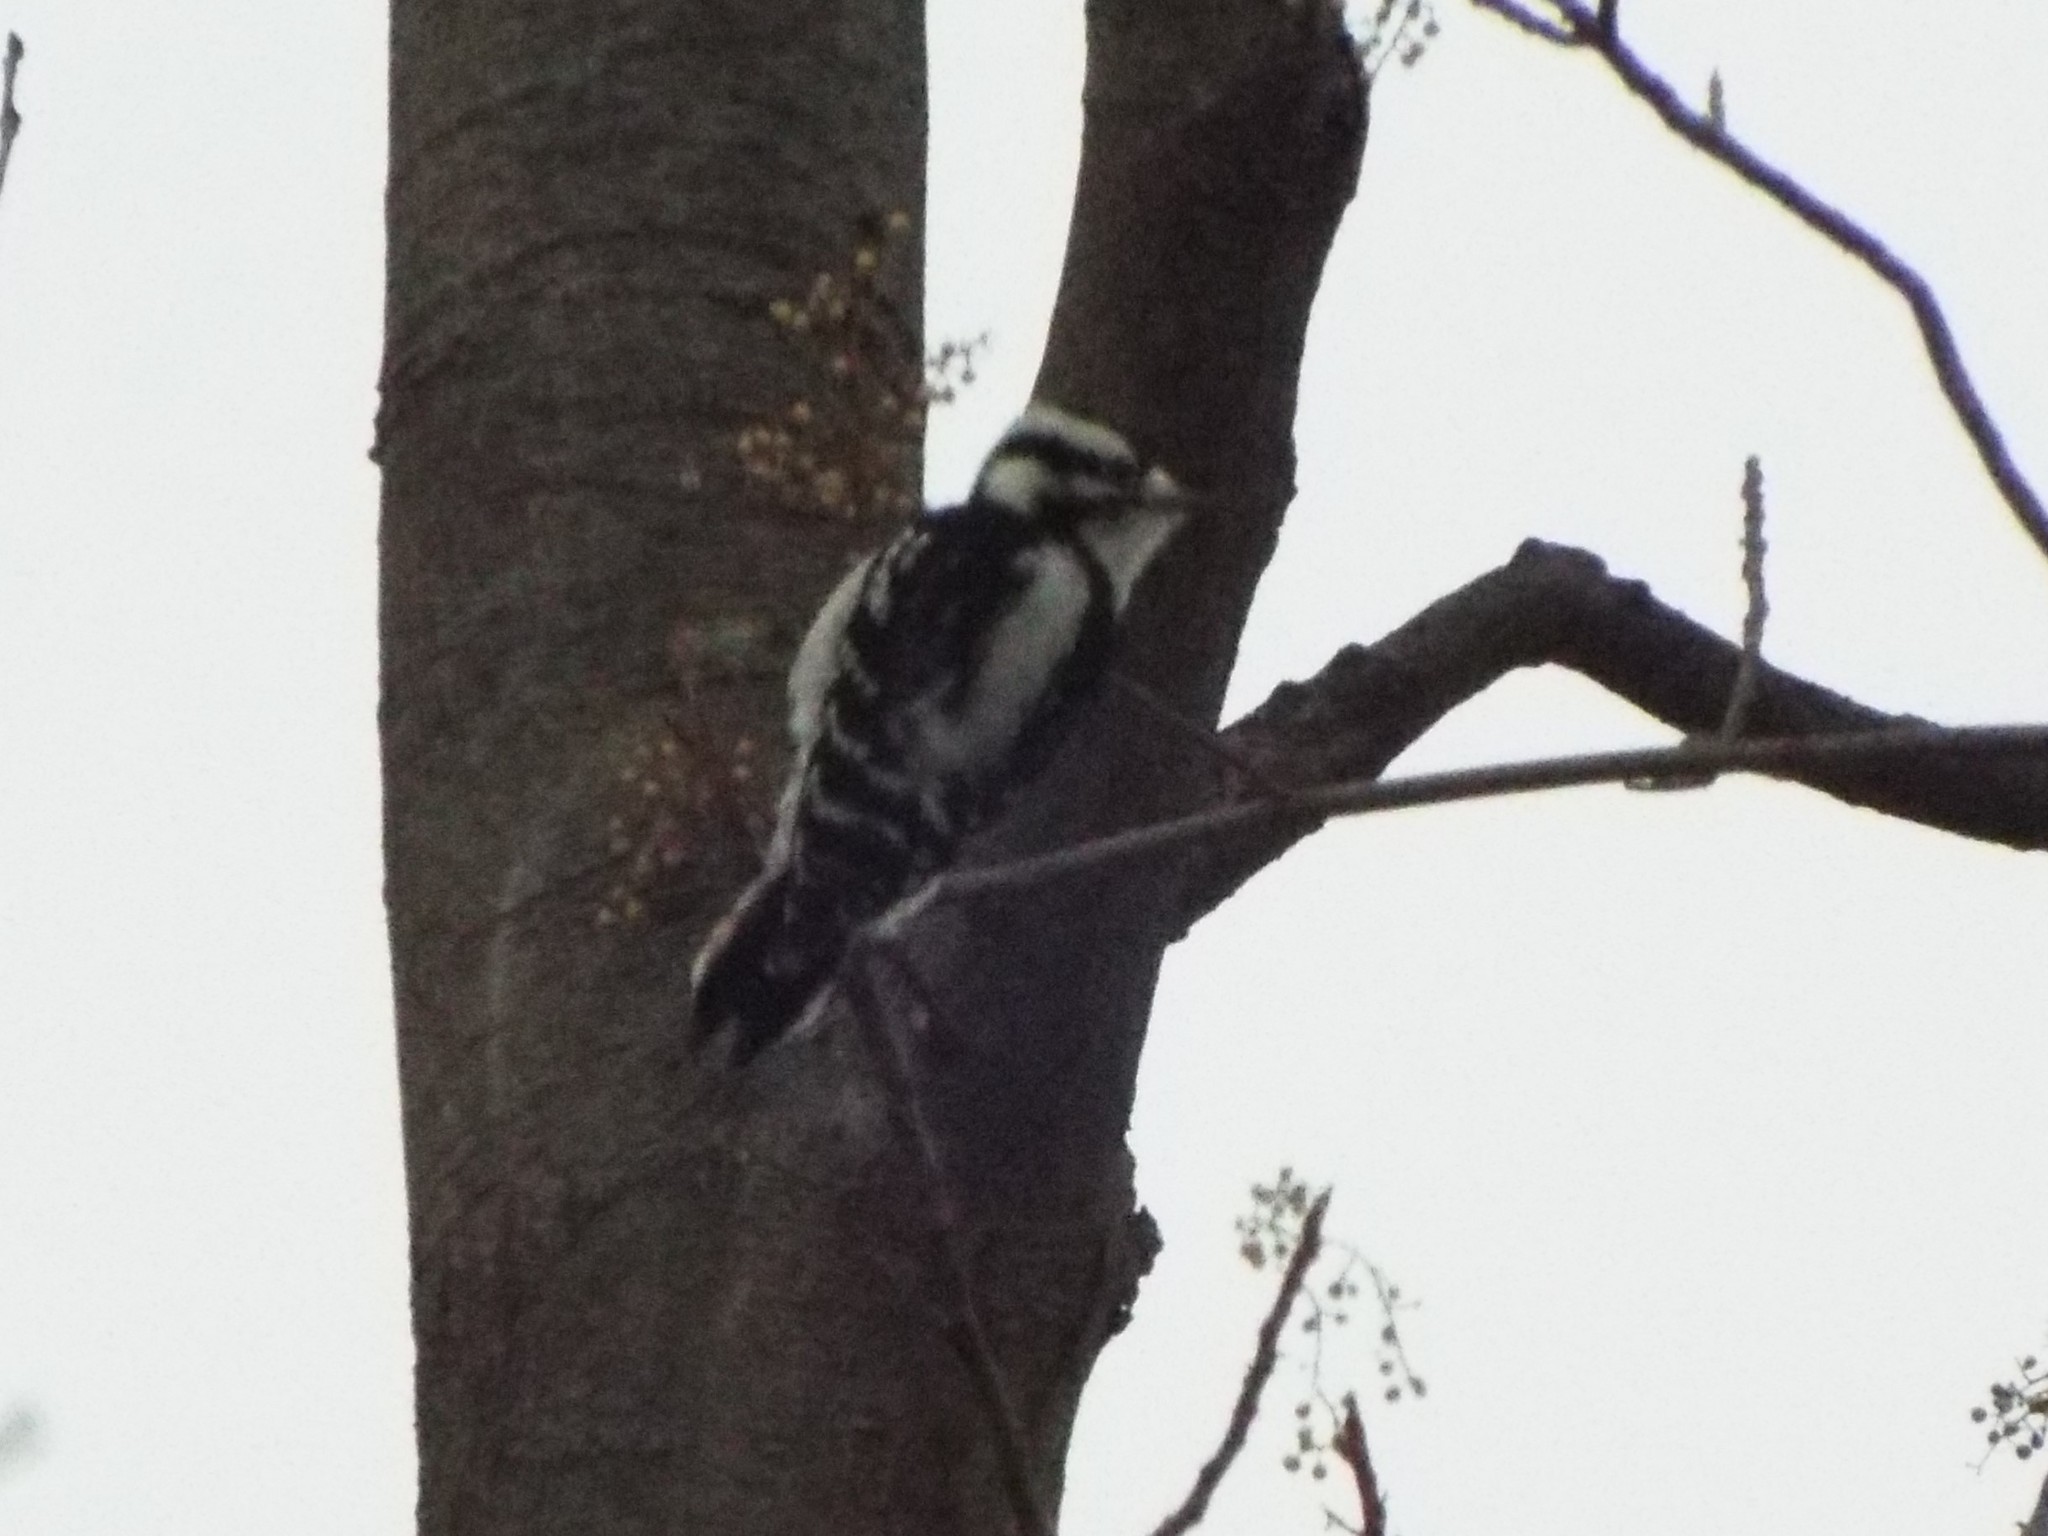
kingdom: Animalia
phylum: Chordata
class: Aves
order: Piciformes
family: Picidae
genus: Dryobates
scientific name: Dryobates pubescens
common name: Downy woodpecker
